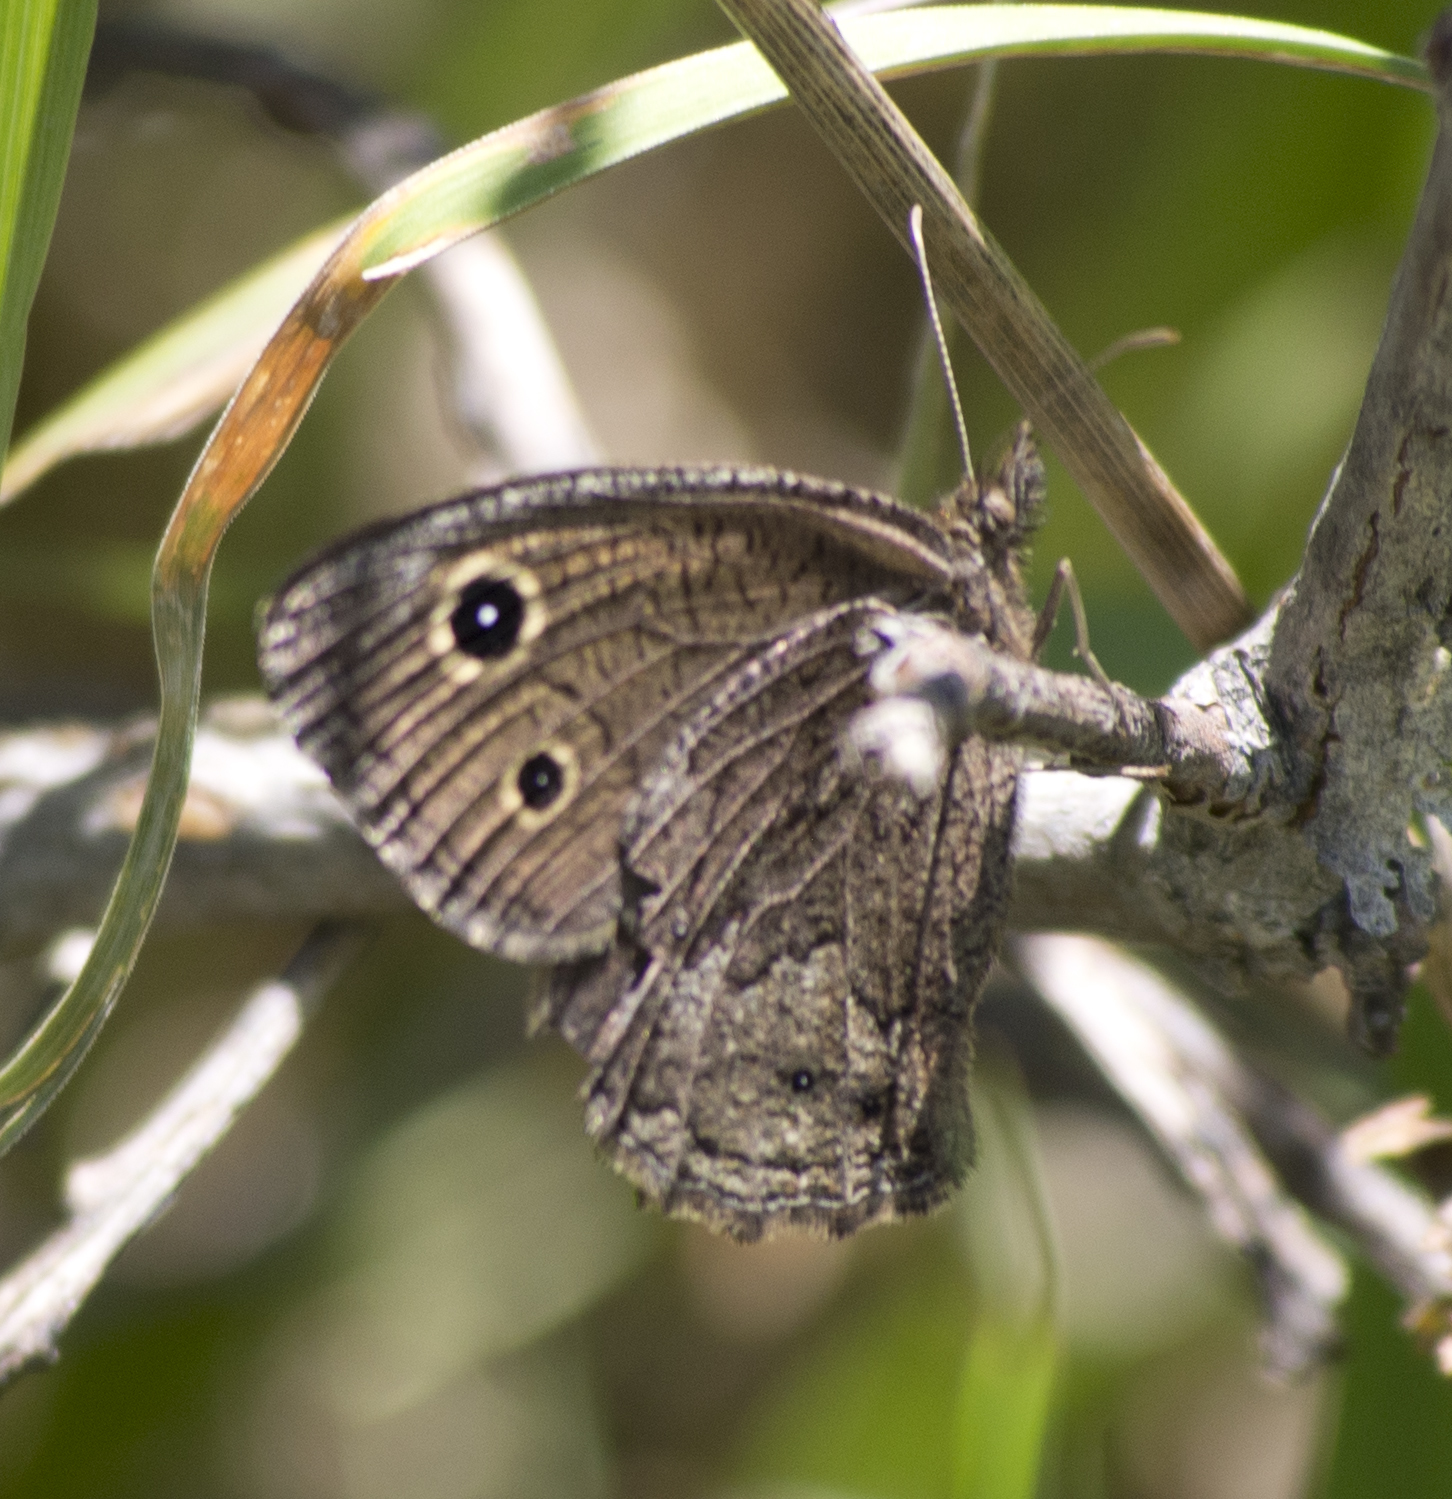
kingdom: Animalia
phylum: Arthropoda
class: Insecta
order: Lepidoptera
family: Nymphalidae
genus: Cercyonis
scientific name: Cercyonis oetus
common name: Small wood-nymph
